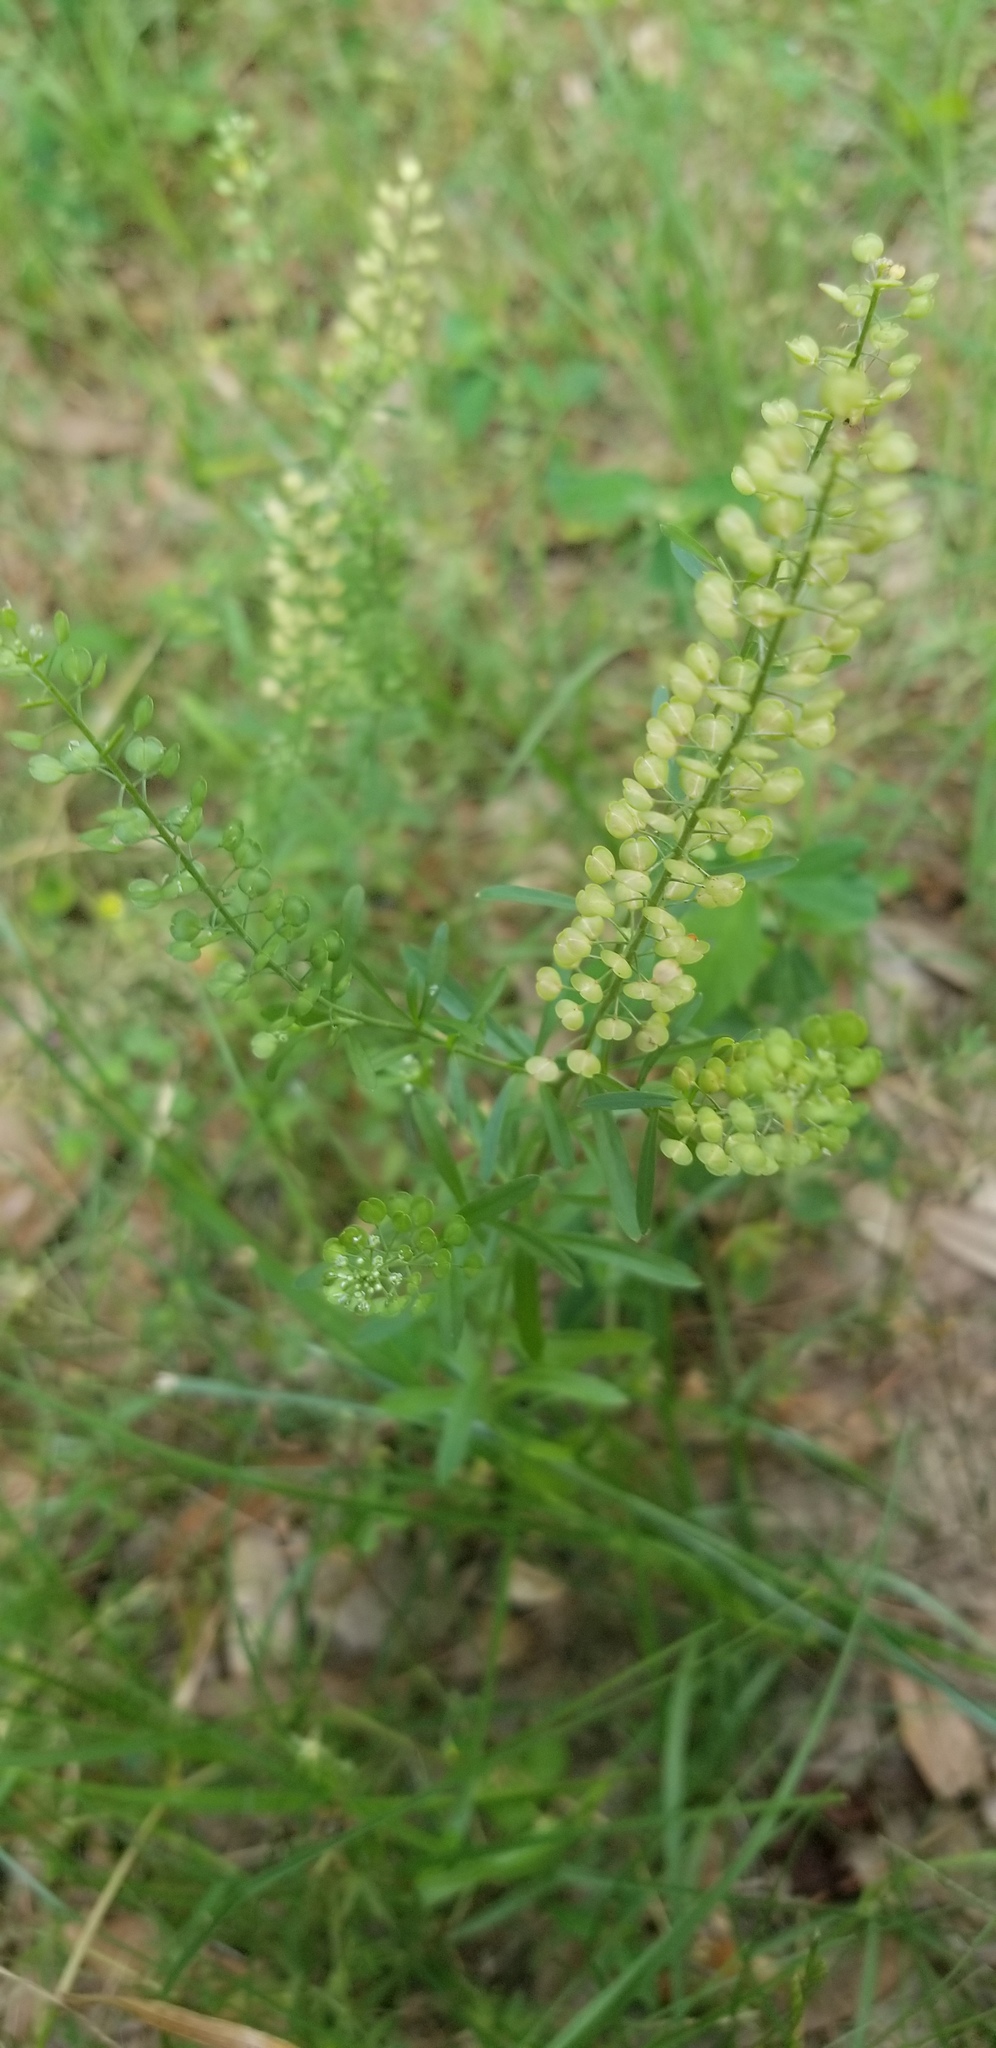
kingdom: Plantae
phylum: Tracheophyta
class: Magnoliopsida
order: Brassicales
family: Brassicaceae
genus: Lepidium
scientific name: Lepidium virginicum
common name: Least pepperwort
